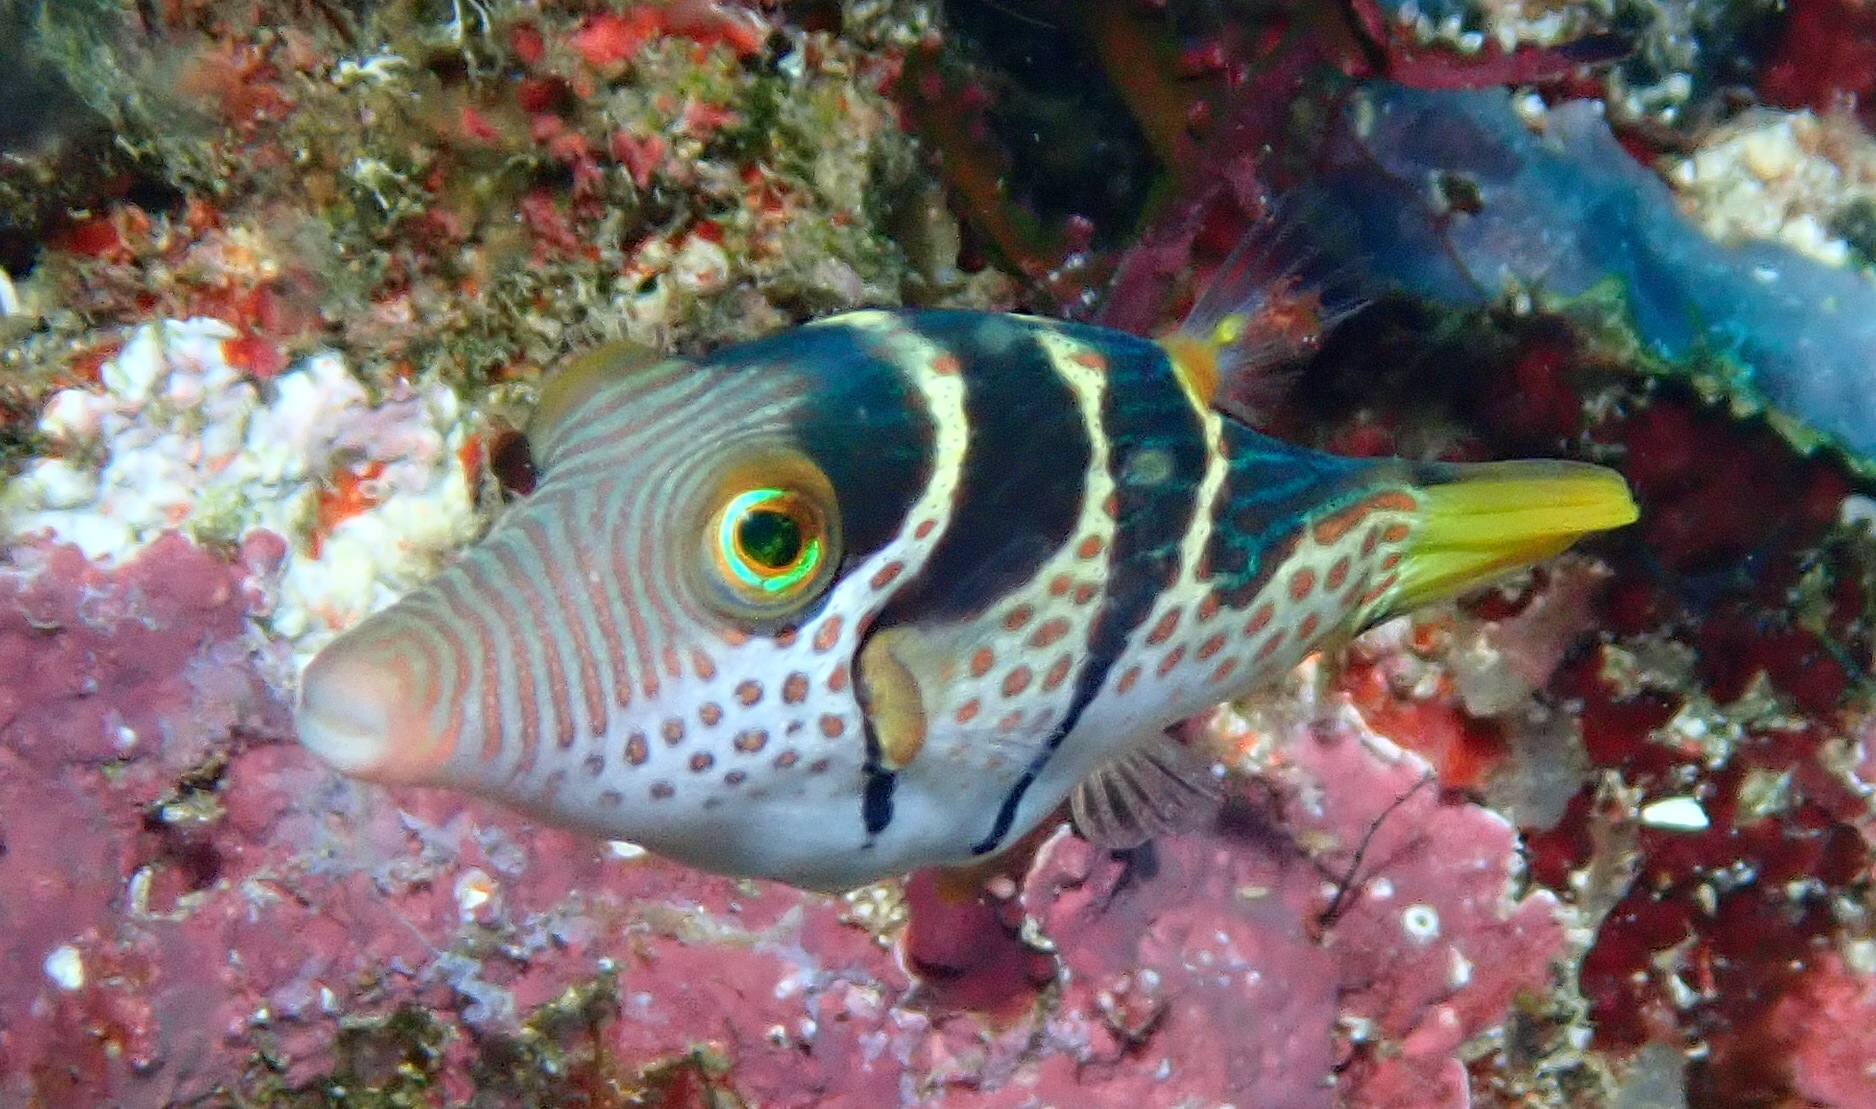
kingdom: Animalia
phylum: Chordata
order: Tetraodontiformes
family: Tetraodontidae
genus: Canthigaster
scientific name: Canthigaster valentini
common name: Banded toby
